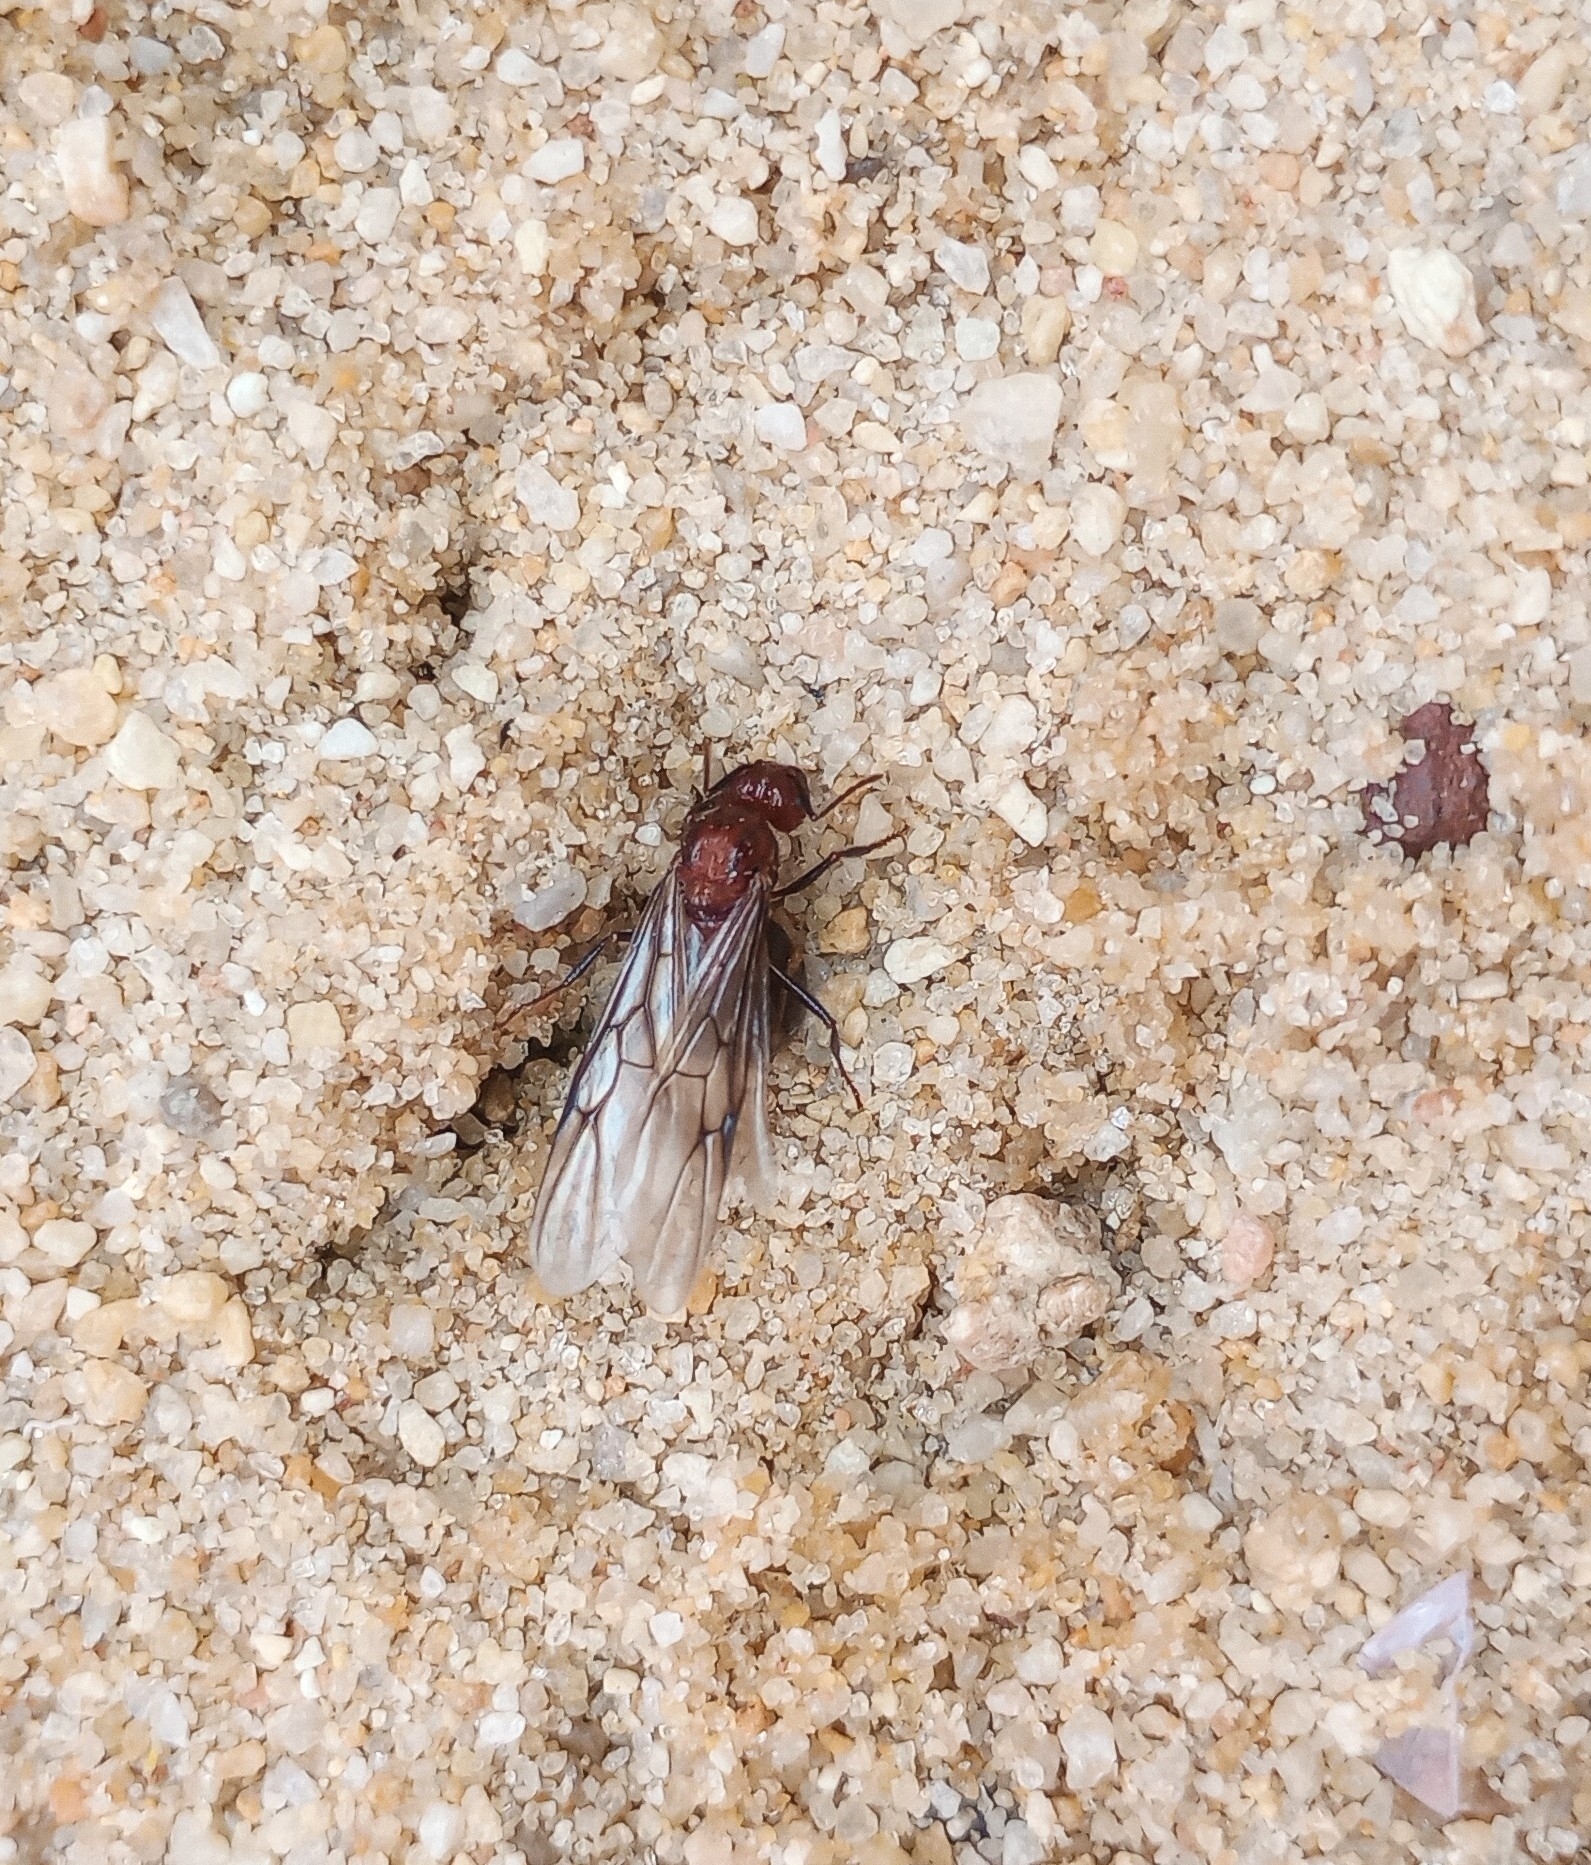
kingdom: Animalia
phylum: Arthropoda
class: Insecta
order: Hymenoptera
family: Formicidae
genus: Myrmicaria
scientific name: Myrmicaria brunnea
